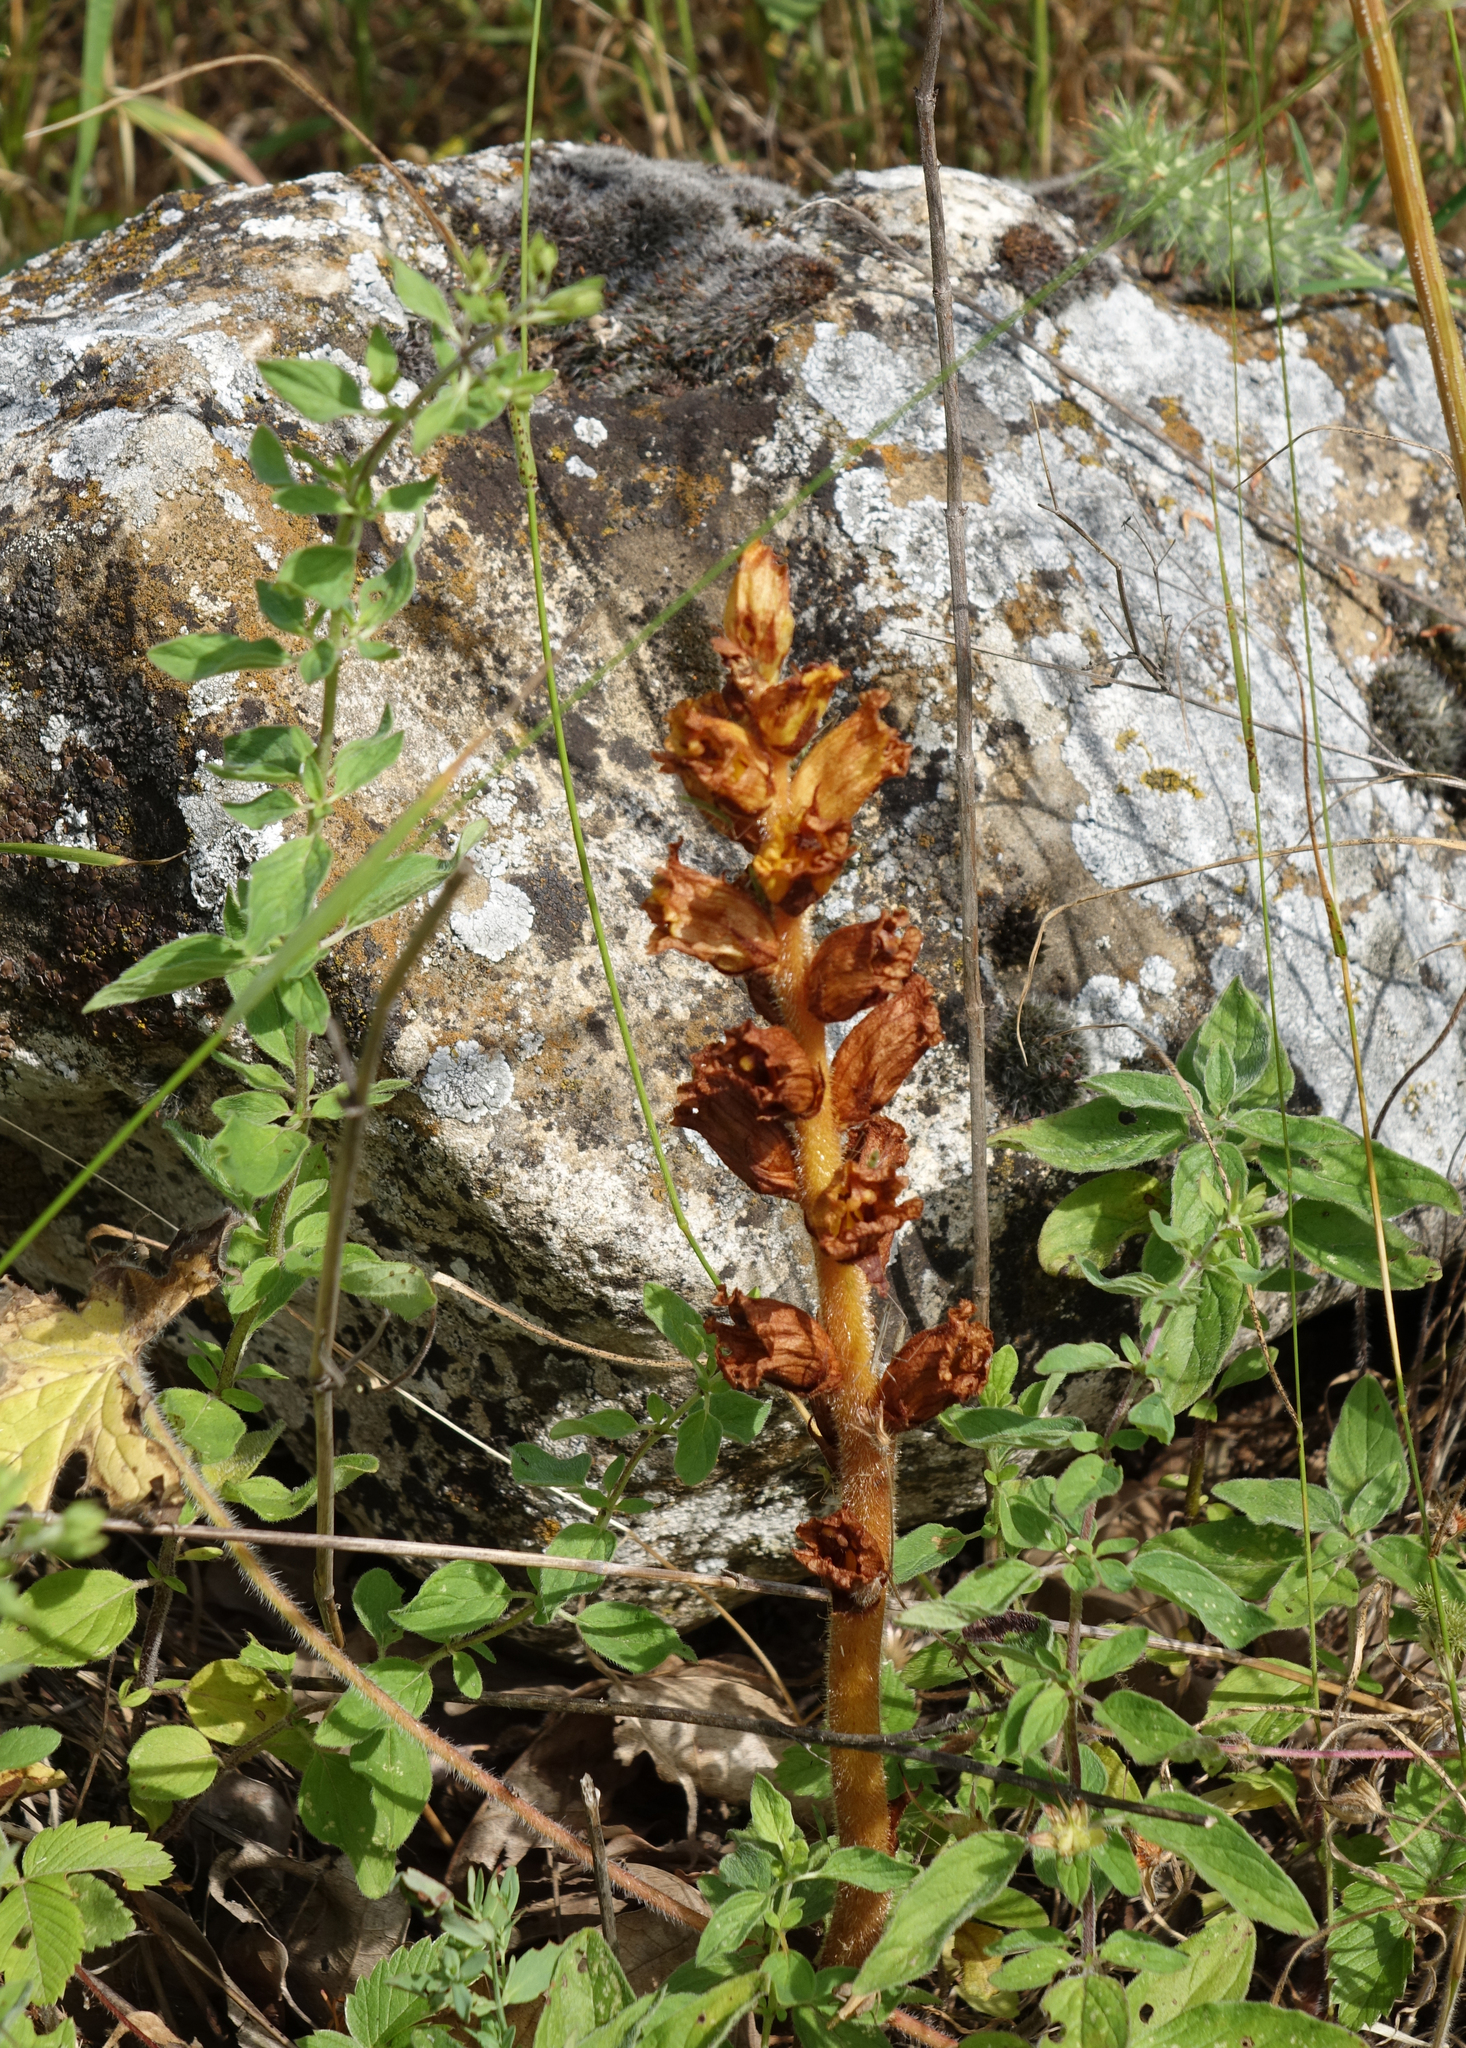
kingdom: Plantae
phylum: Tracheophyta
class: Magnoliopsida
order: Lamiales
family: Orobanchaceae
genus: Orobanche
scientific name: Orobanche alba
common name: Thyme broomrape
